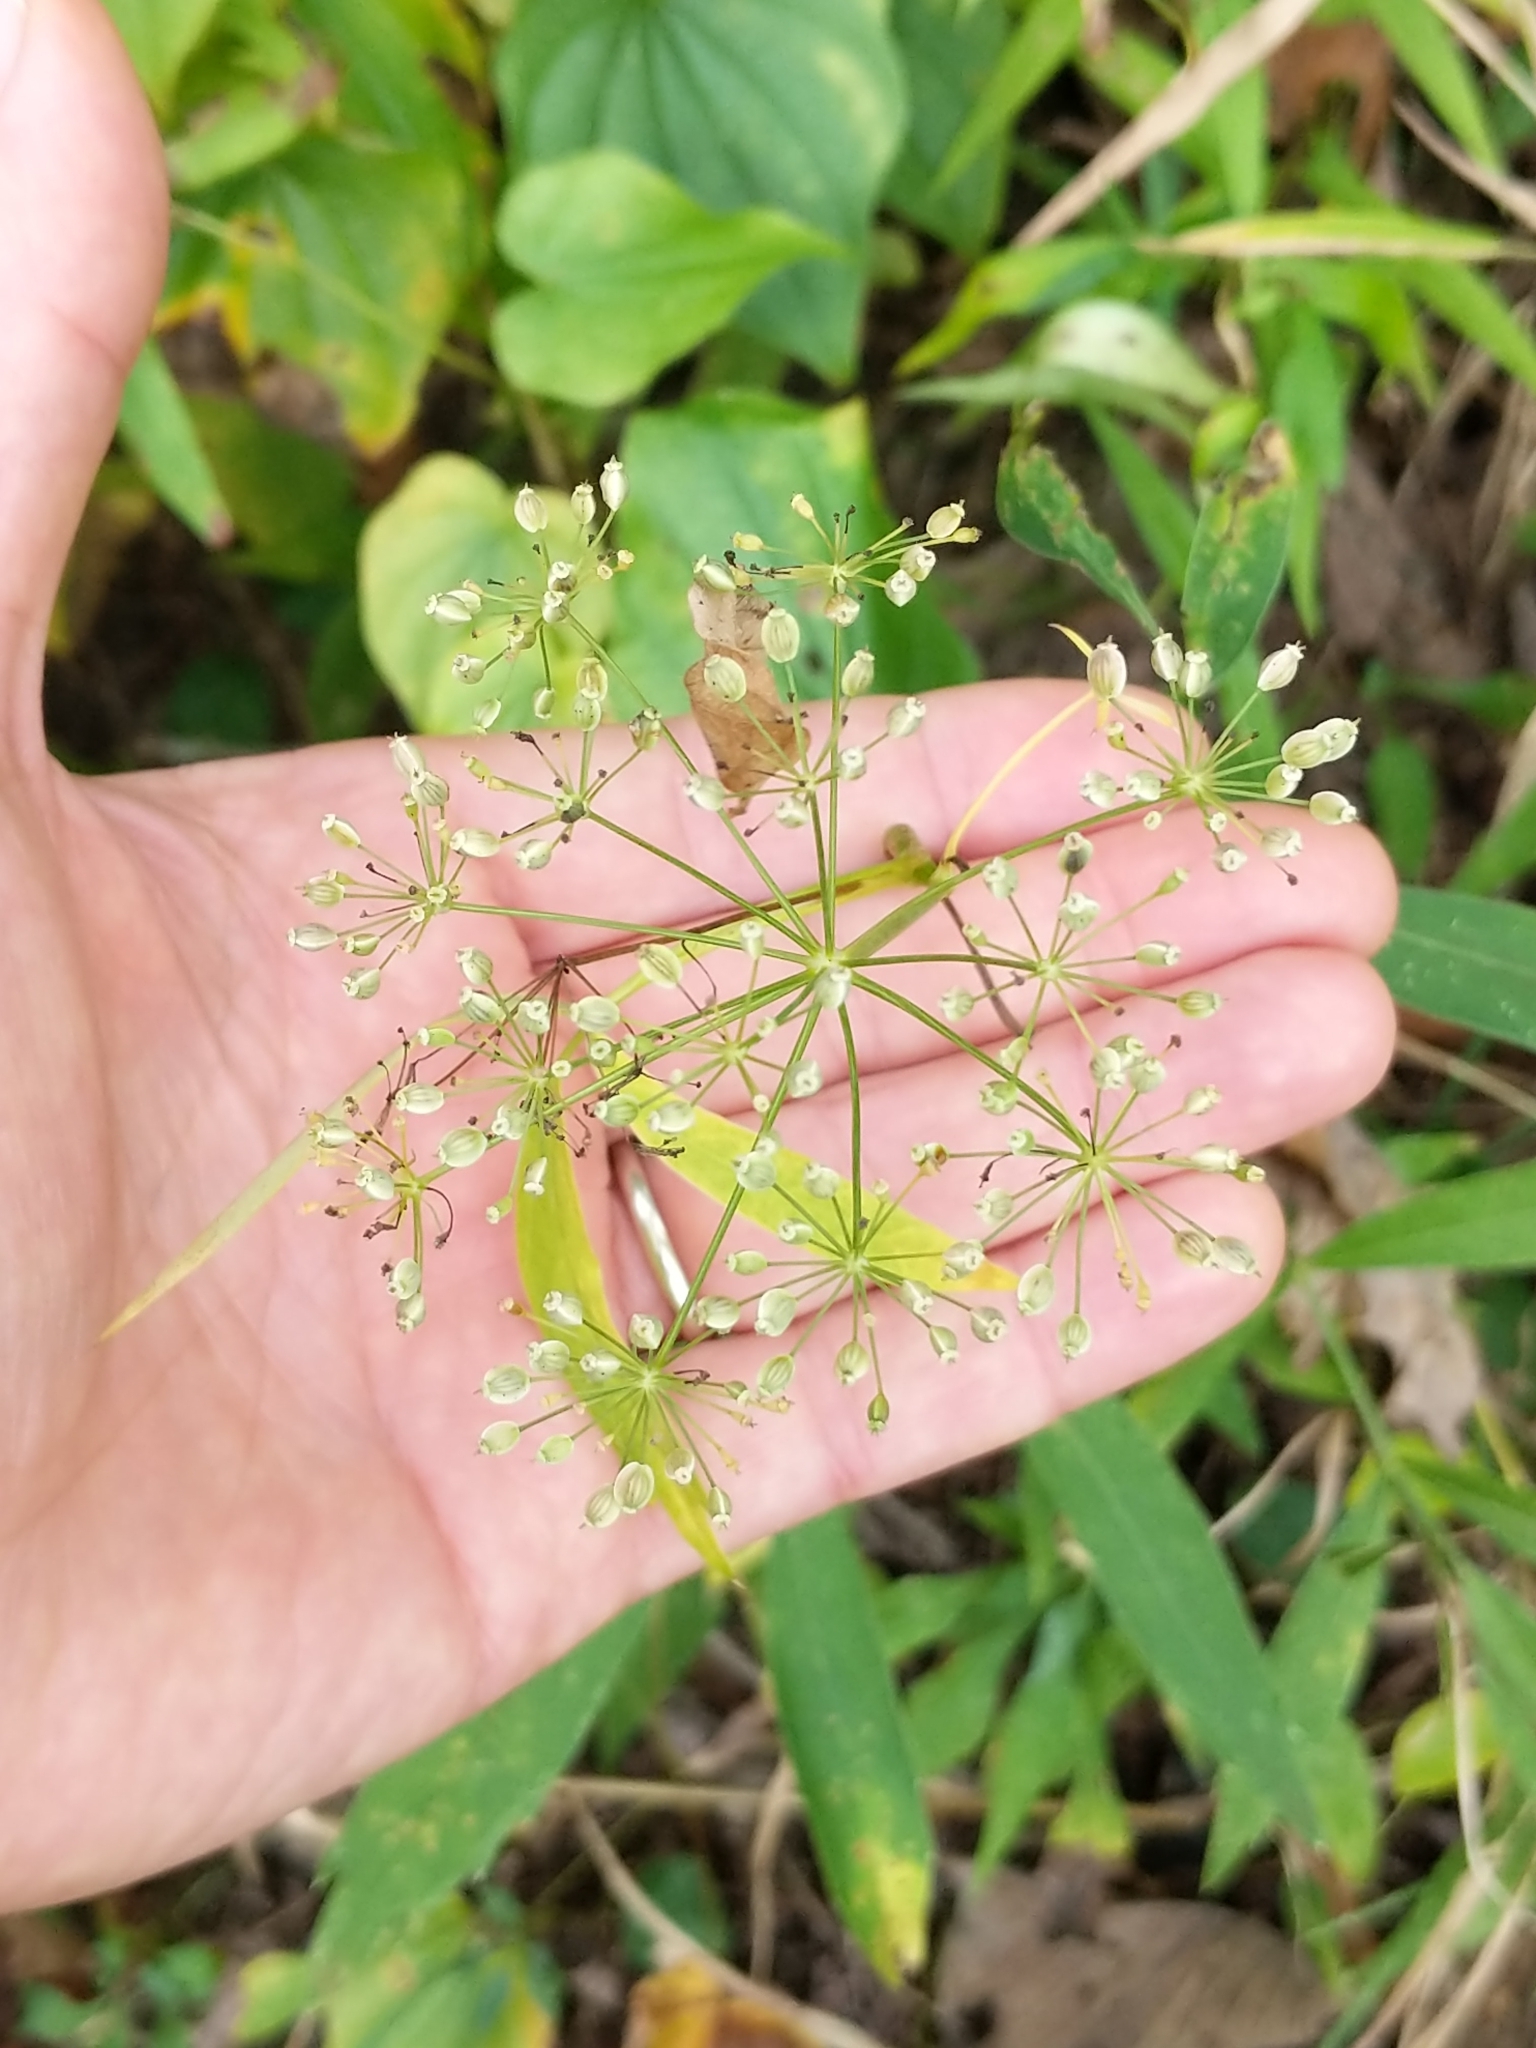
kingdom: Plantae
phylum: Tracheophyta
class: Magnoliopsida
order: Apiales
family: Apiaceae
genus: Oxypolis
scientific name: Oxypolis rigidior
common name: Cowbane
